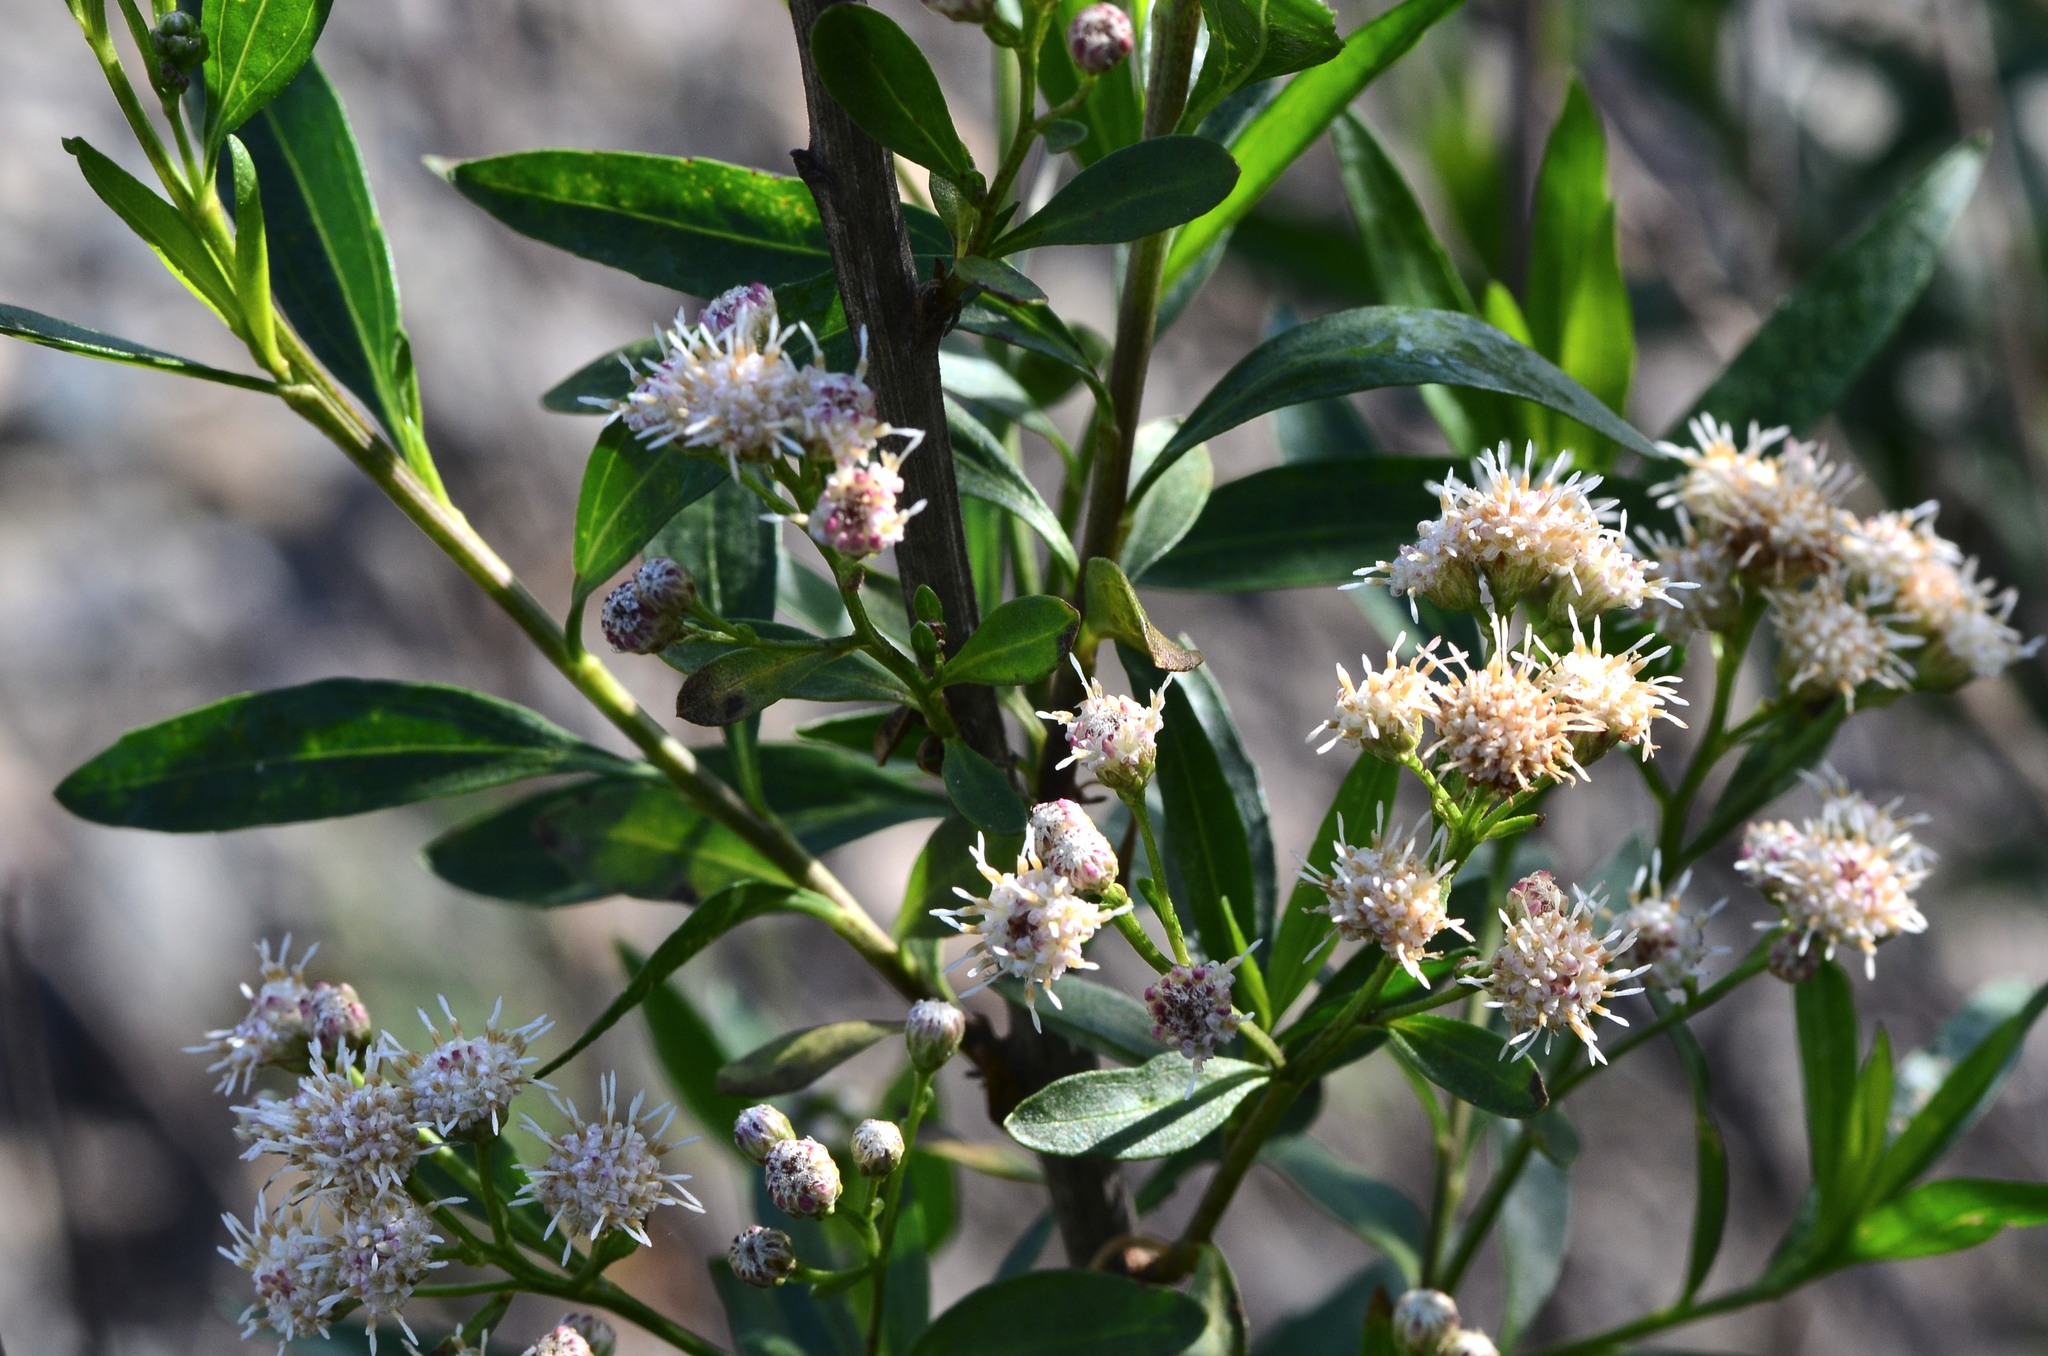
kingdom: Plantae
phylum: Tracheophyta
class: Magnoliopsida
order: Asterales
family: Asteraceae
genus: Baccharis
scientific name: Baccharis salicifolia
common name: Sticky baccharis
